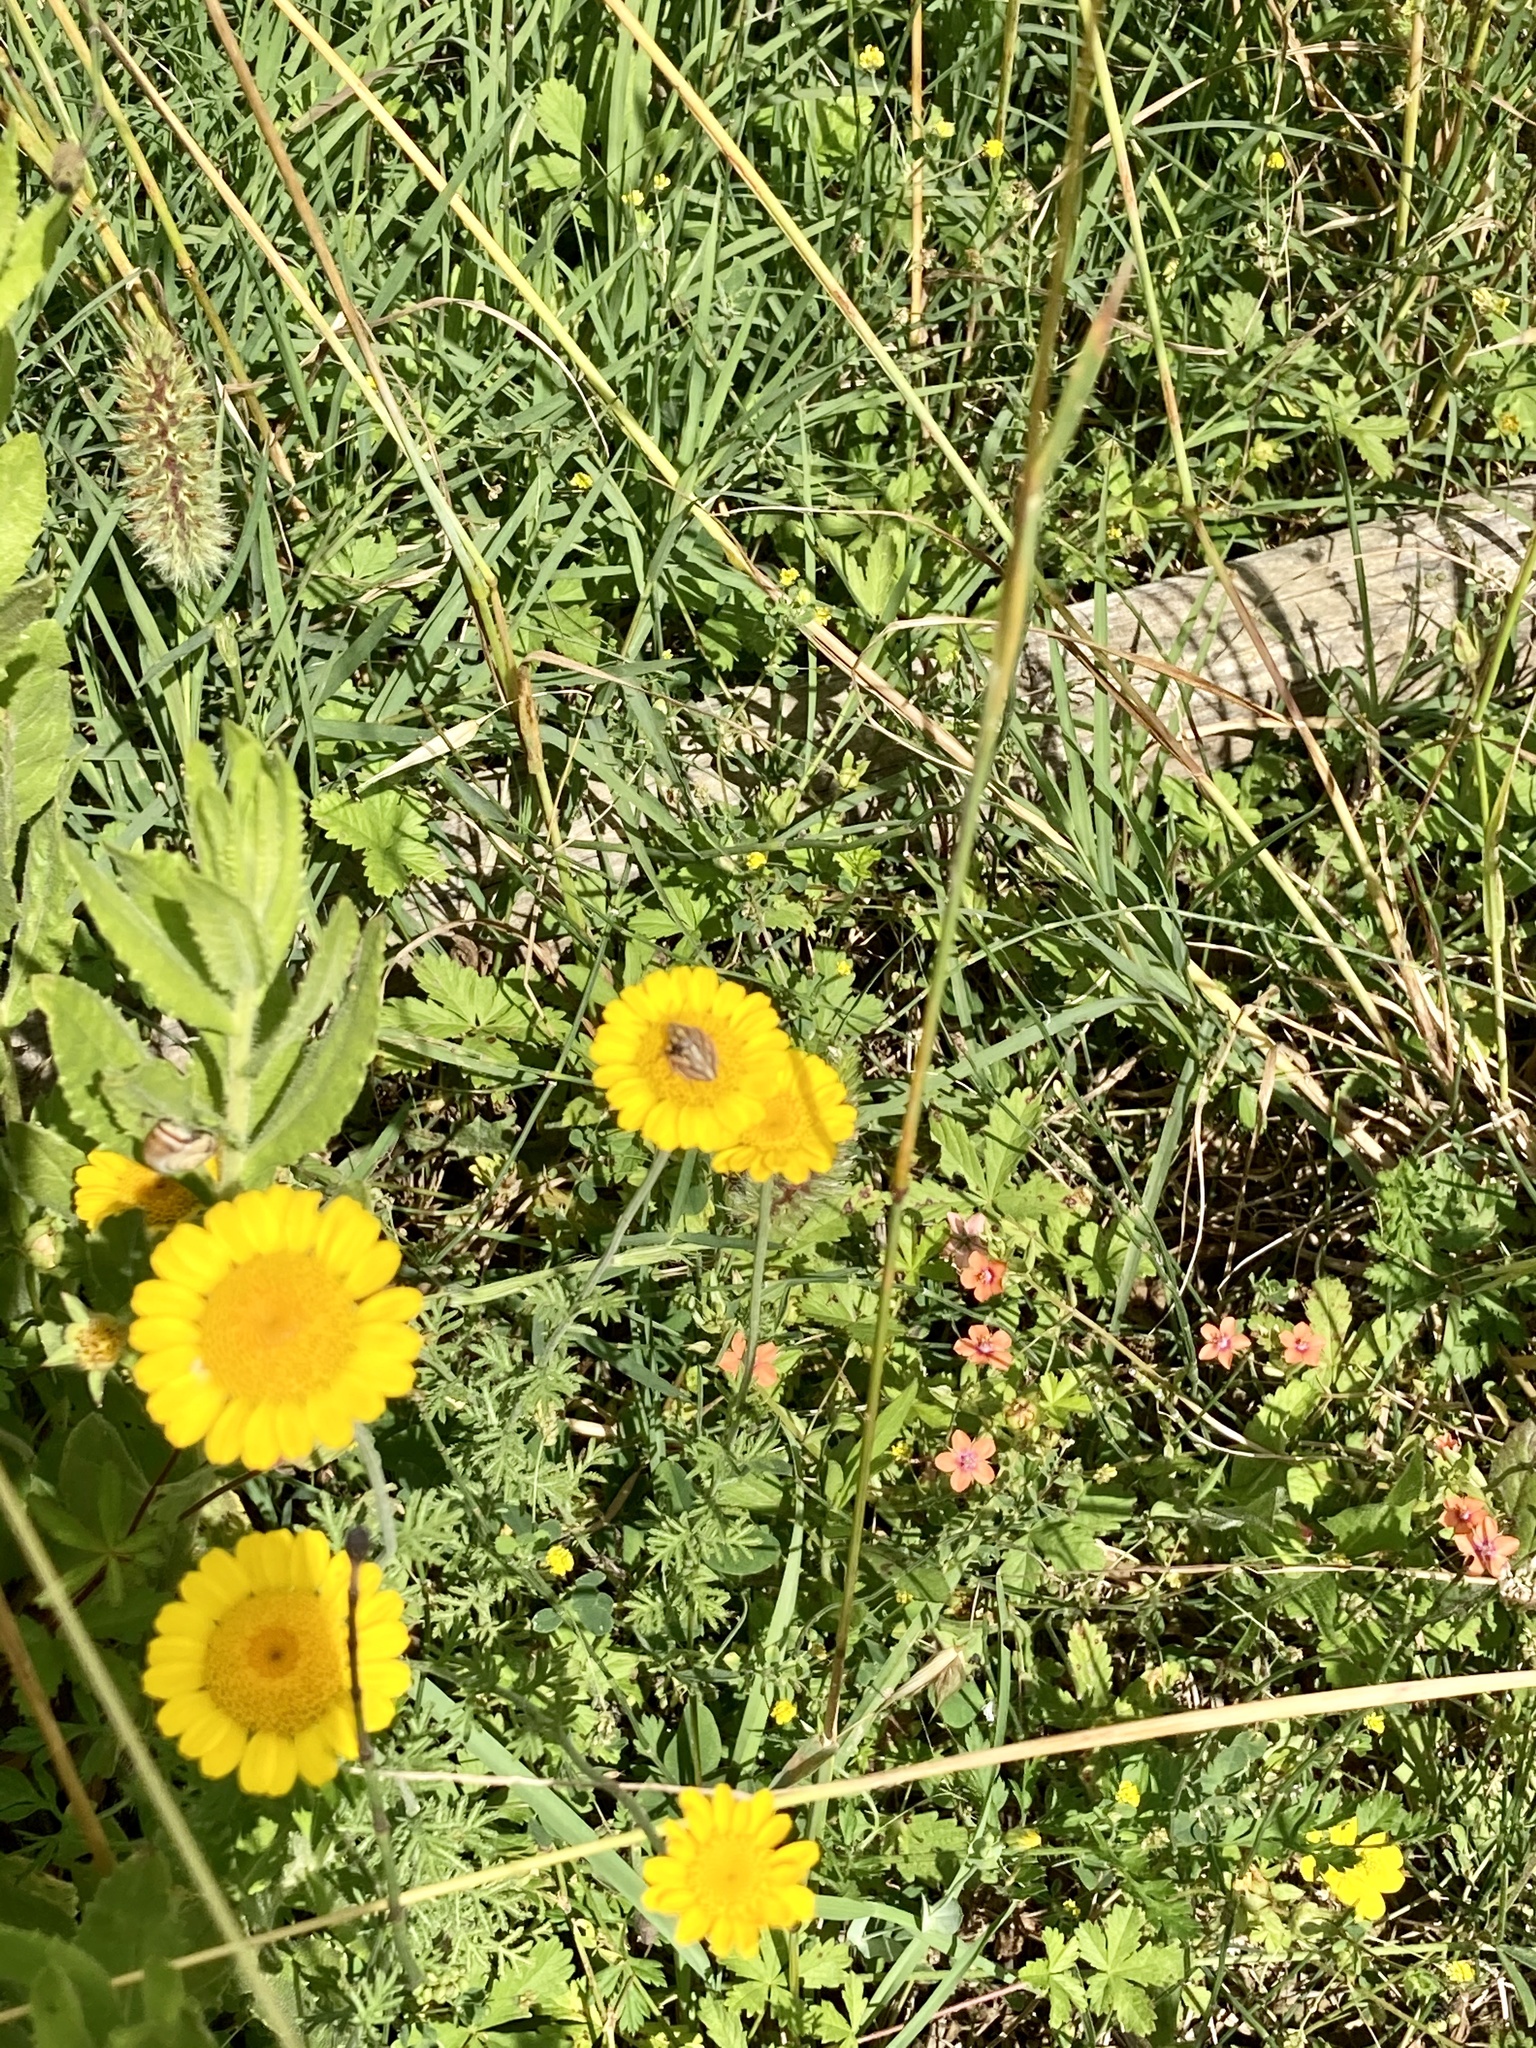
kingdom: Animalia
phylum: Arthropoda
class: Insecta
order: Hemiptera
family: Scutelleridae
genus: Odontotarsus
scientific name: Odontotarsus purpureolineatus
